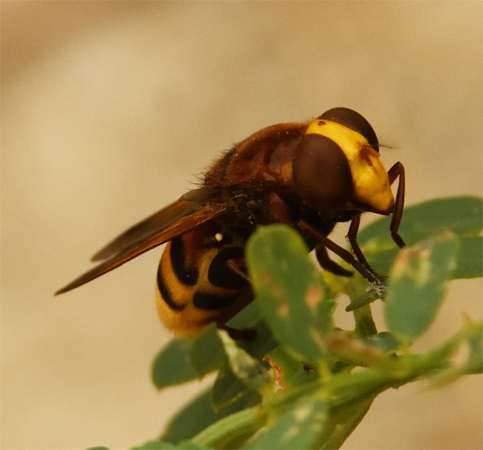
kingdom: Animalia
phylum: Arthropoda
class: Insecta
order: Diptera
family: Syrphidae
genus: Volucella
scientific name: Volucella zonaria
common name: Hornet hoverfly
